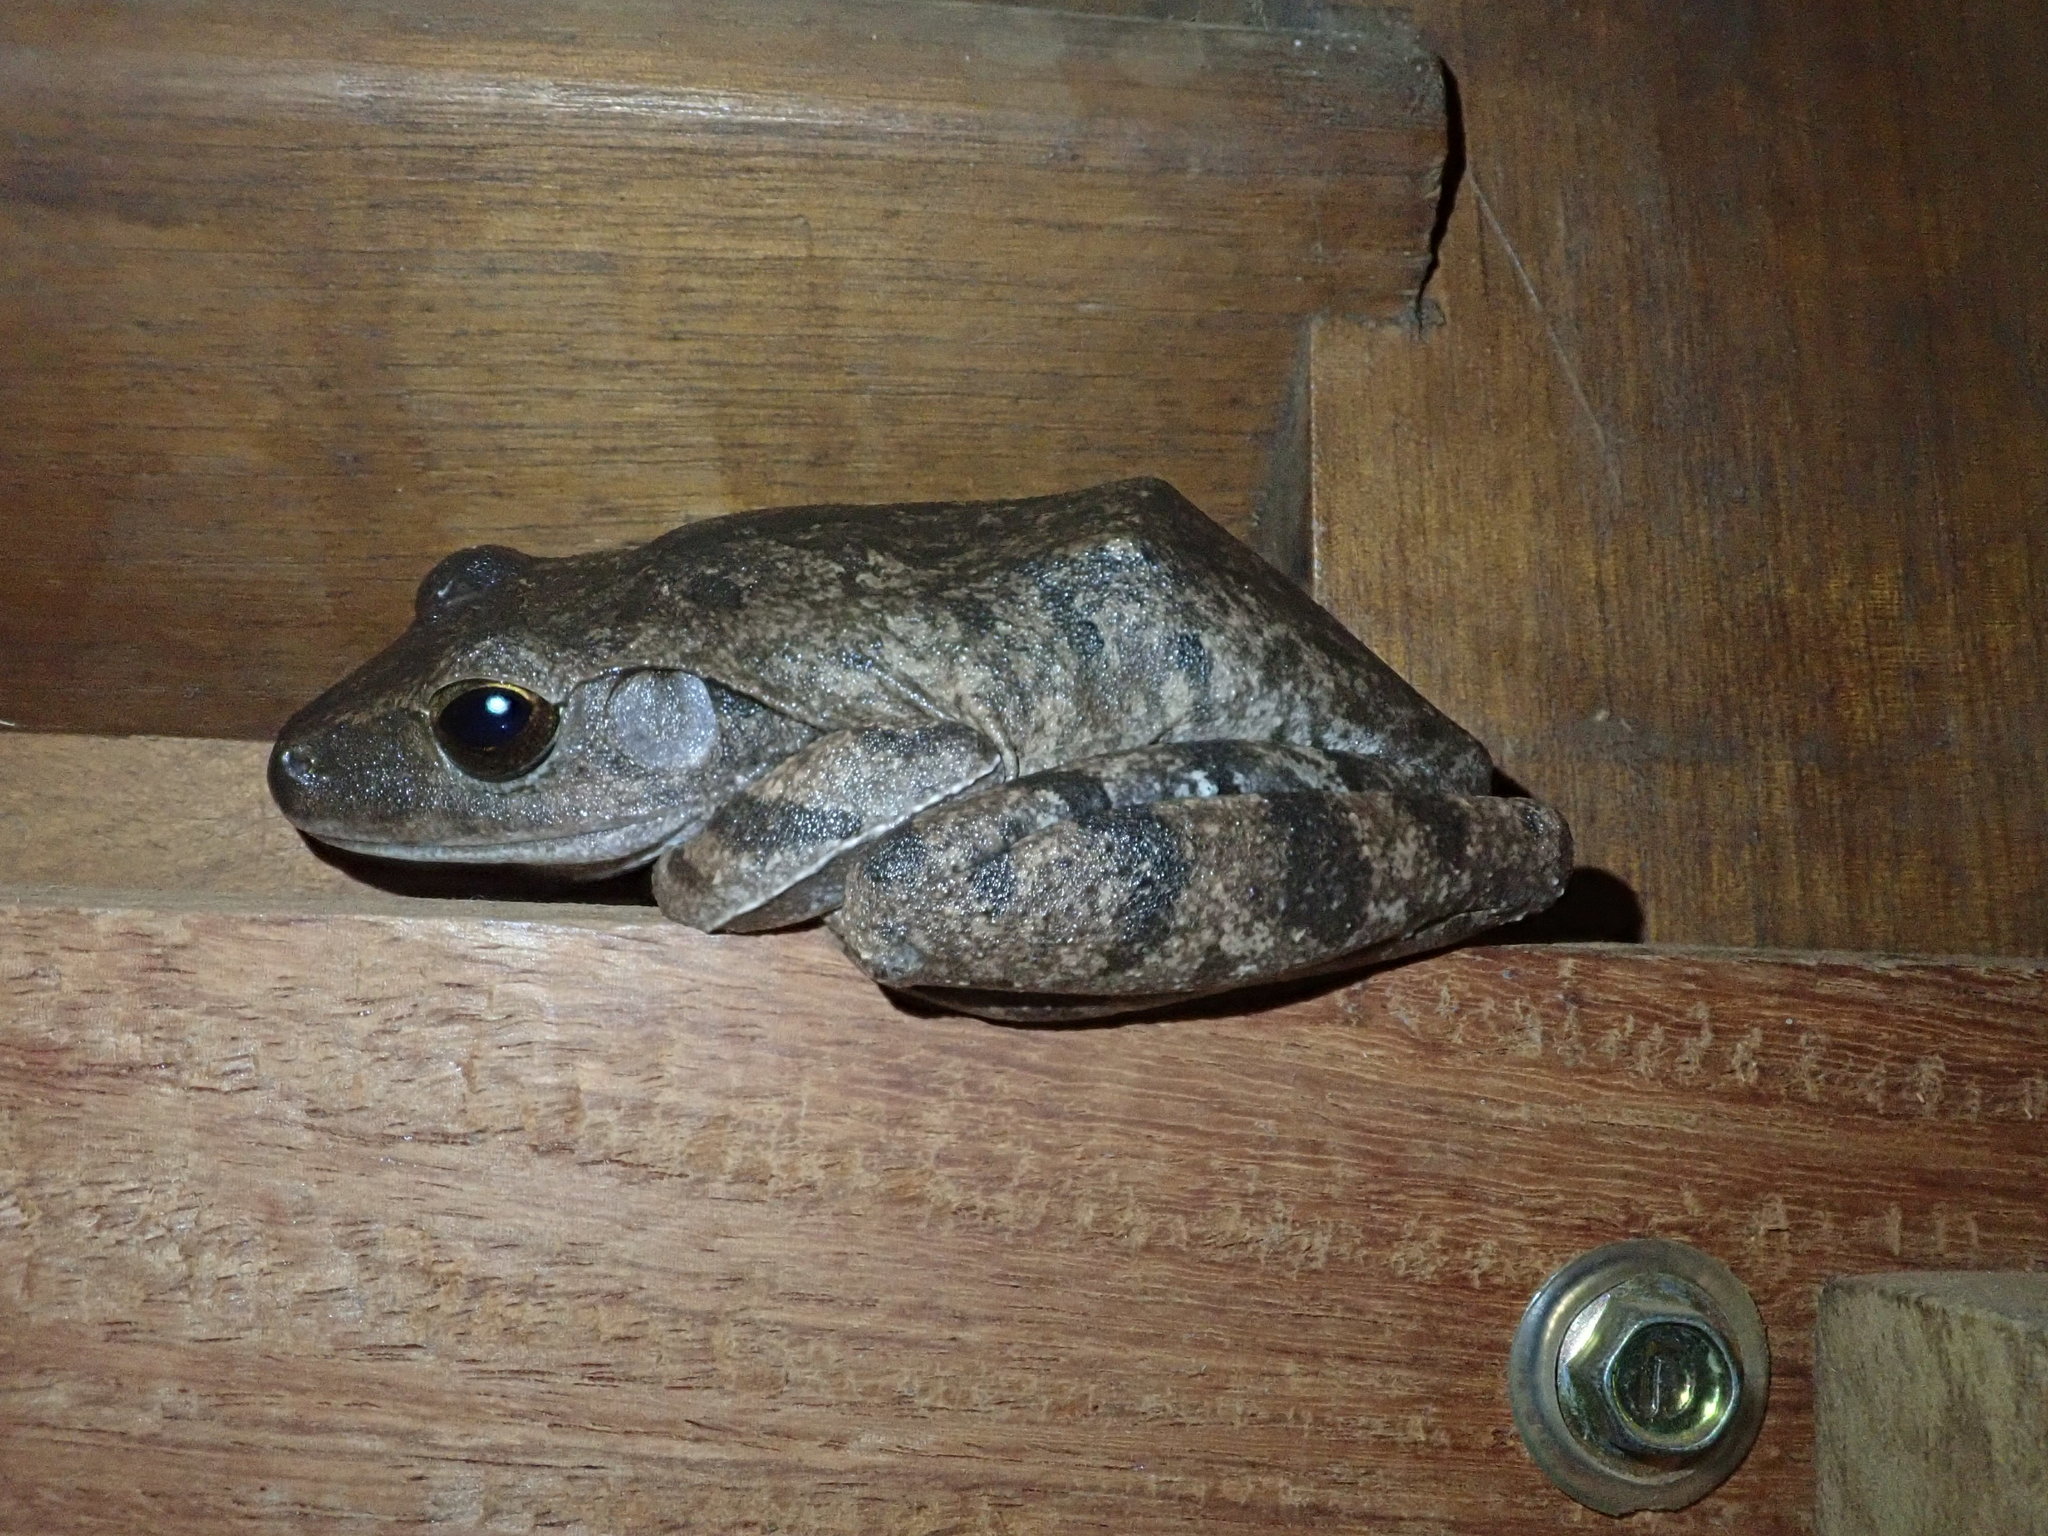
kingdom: Animalia
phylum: Chordata
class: Amphibia
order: Anura
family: Rhacophoridae
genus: Polypedates
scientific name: Polypedates megacephalus
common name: Hong kong whipping frog
